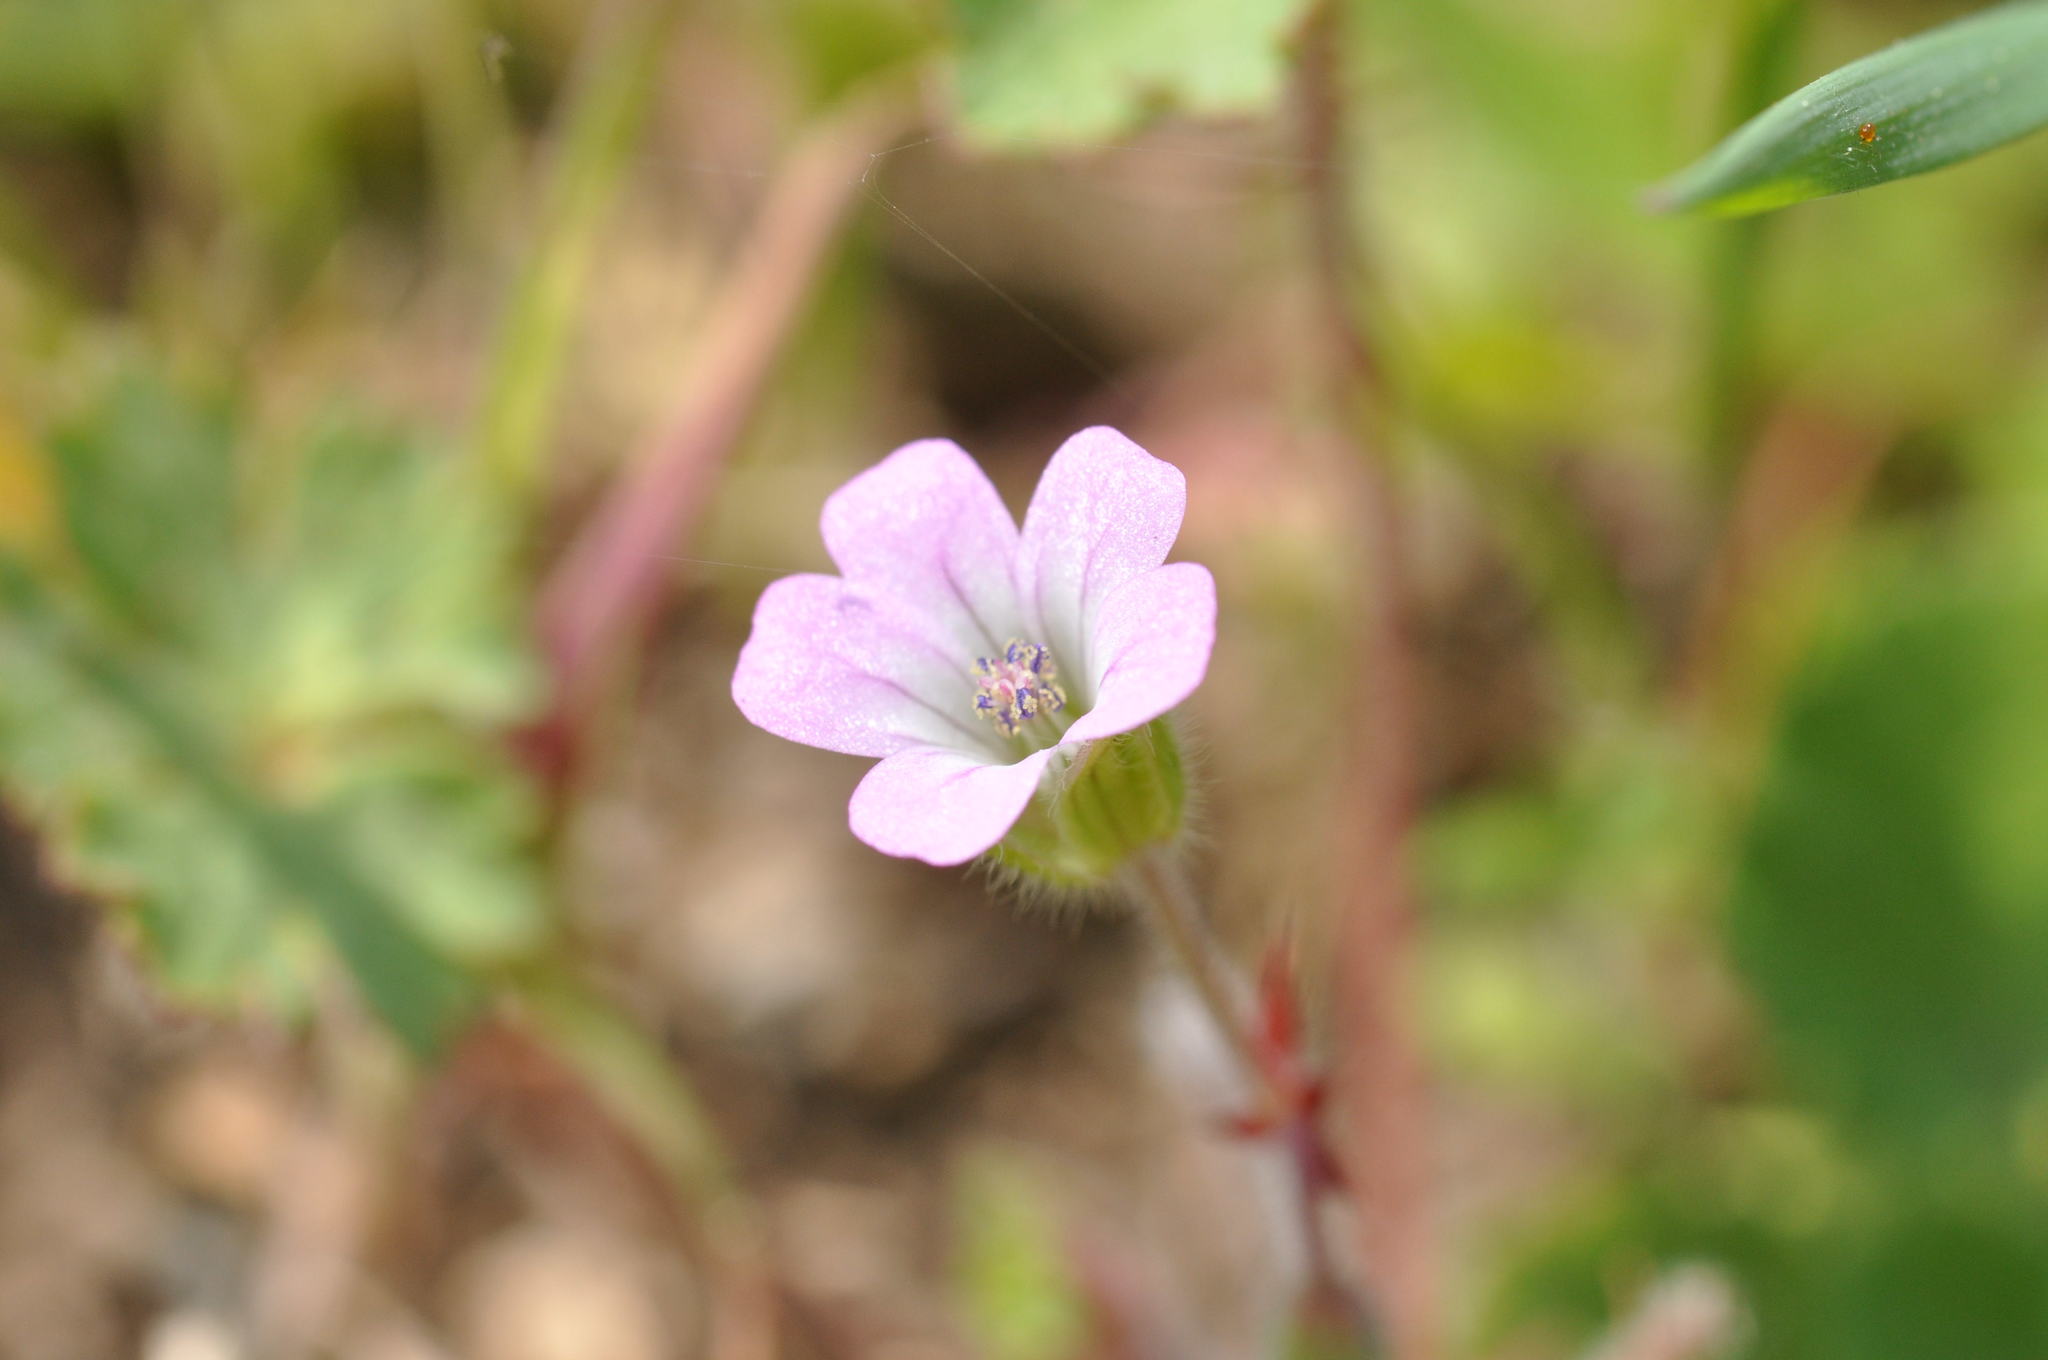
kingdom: Plantae
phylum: Tracheophyta
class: Magnoliopsida
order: Geraniales
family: Geraniaceae
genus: Geranium
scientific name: Geranium rotundifolium
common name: Round-leaved crane's-bill
